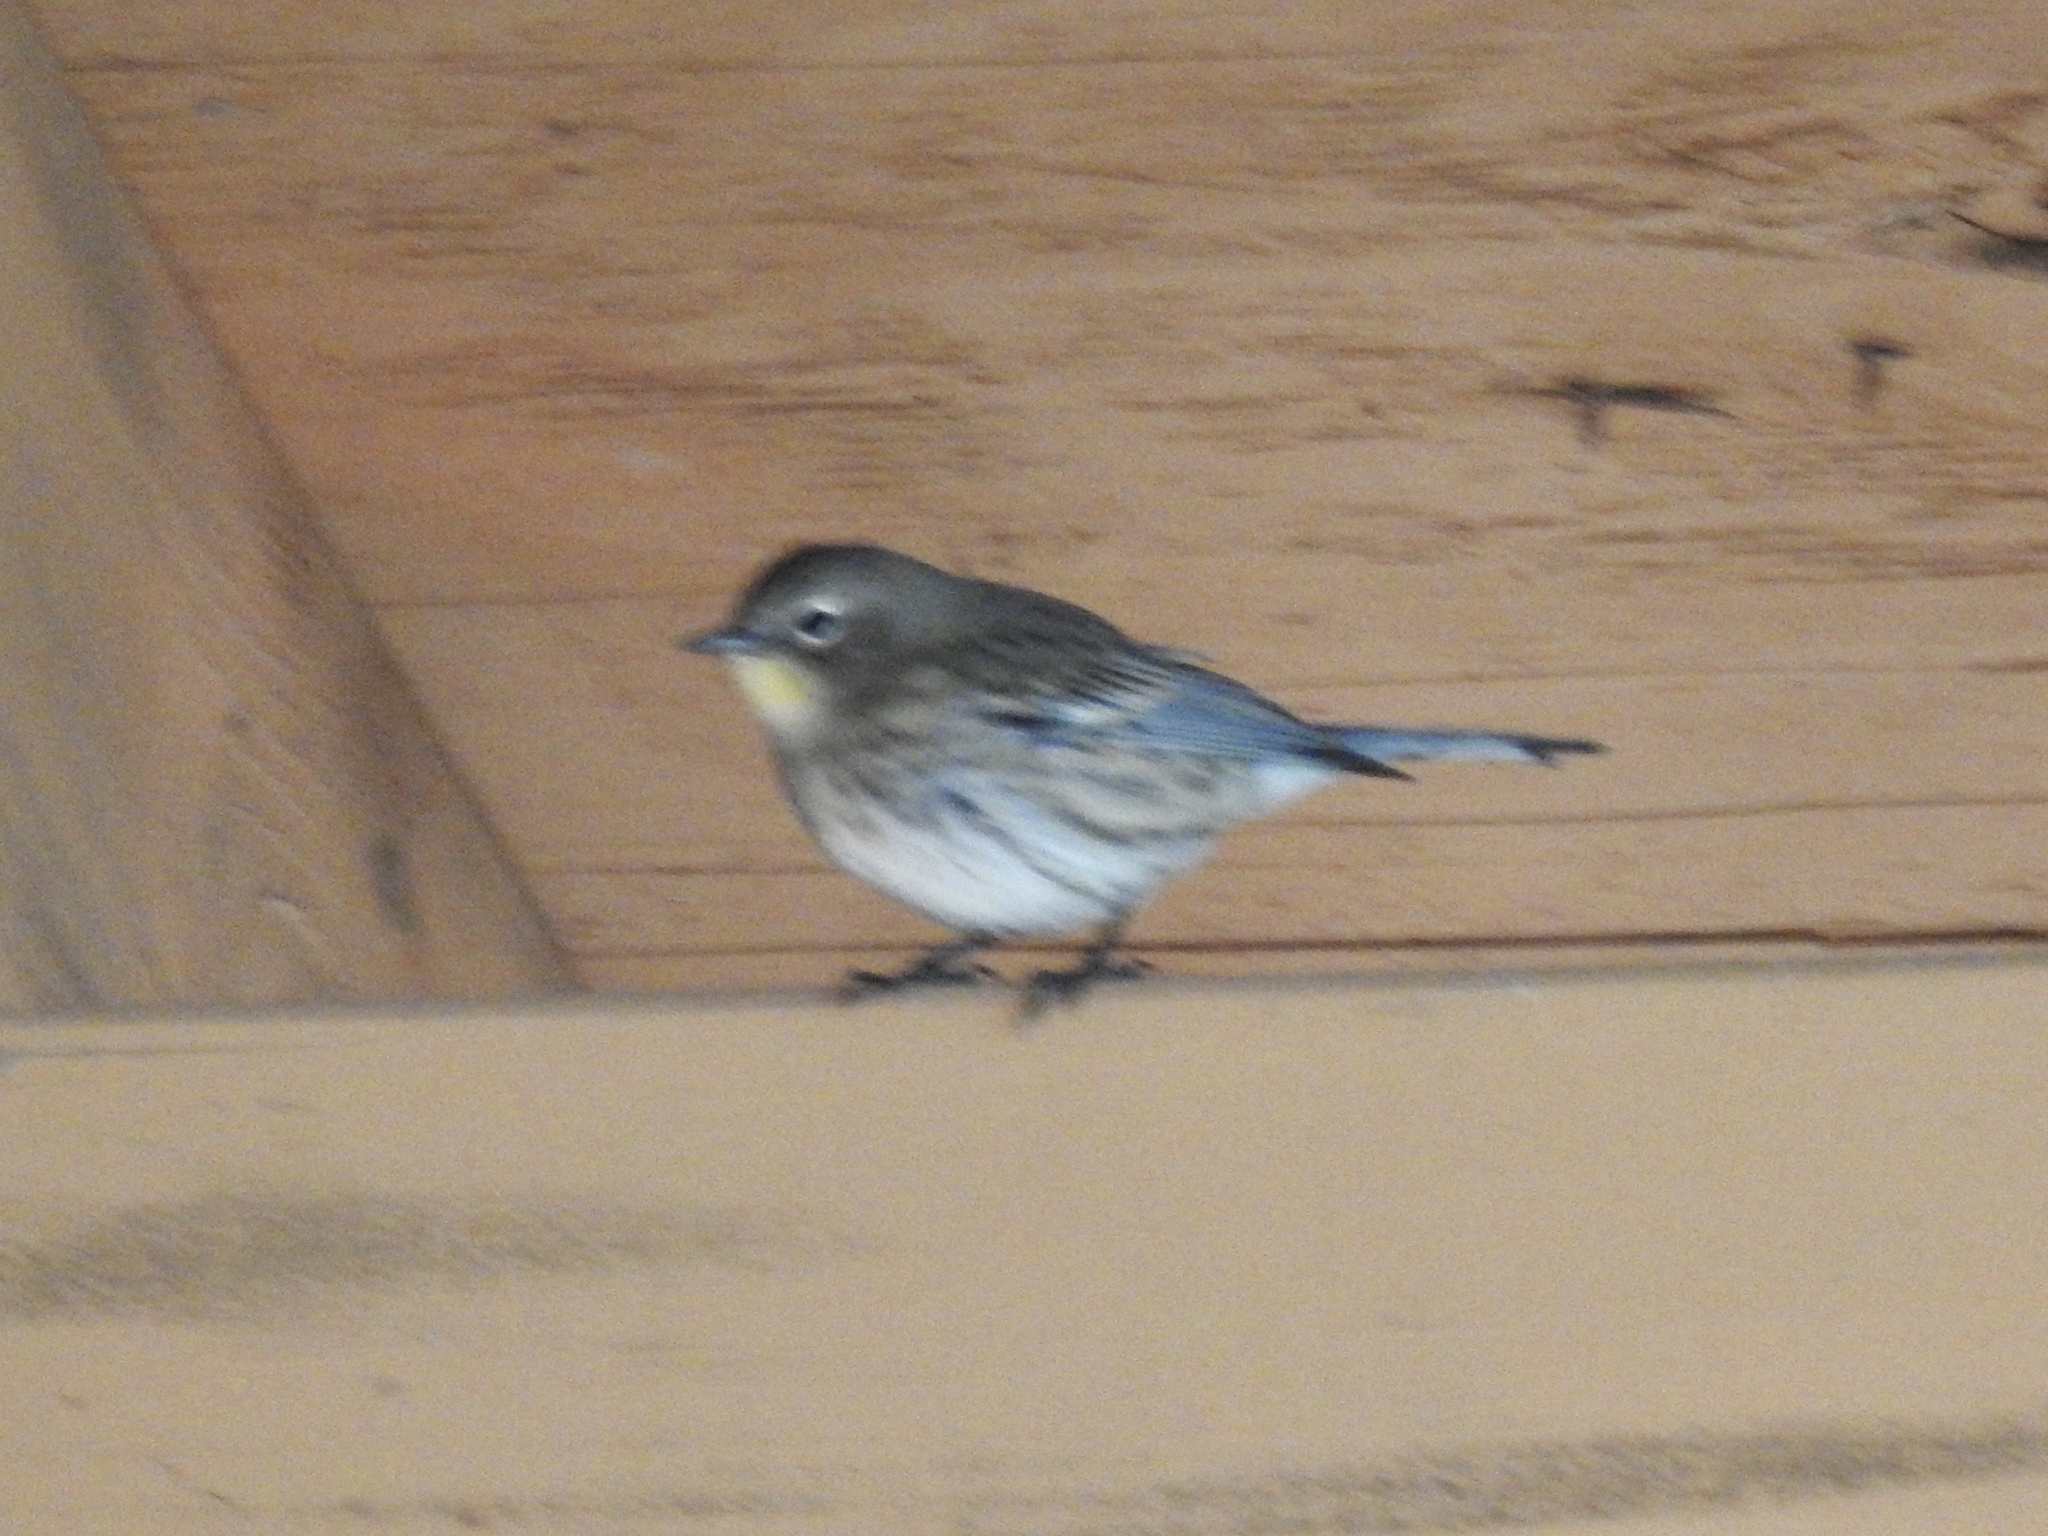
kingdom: Animalia
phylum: Chordata
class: Aves
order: Passeriformes
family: Parulidae
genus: Setophaga
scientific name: Setophaga coronata
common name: Myrtle warbler
